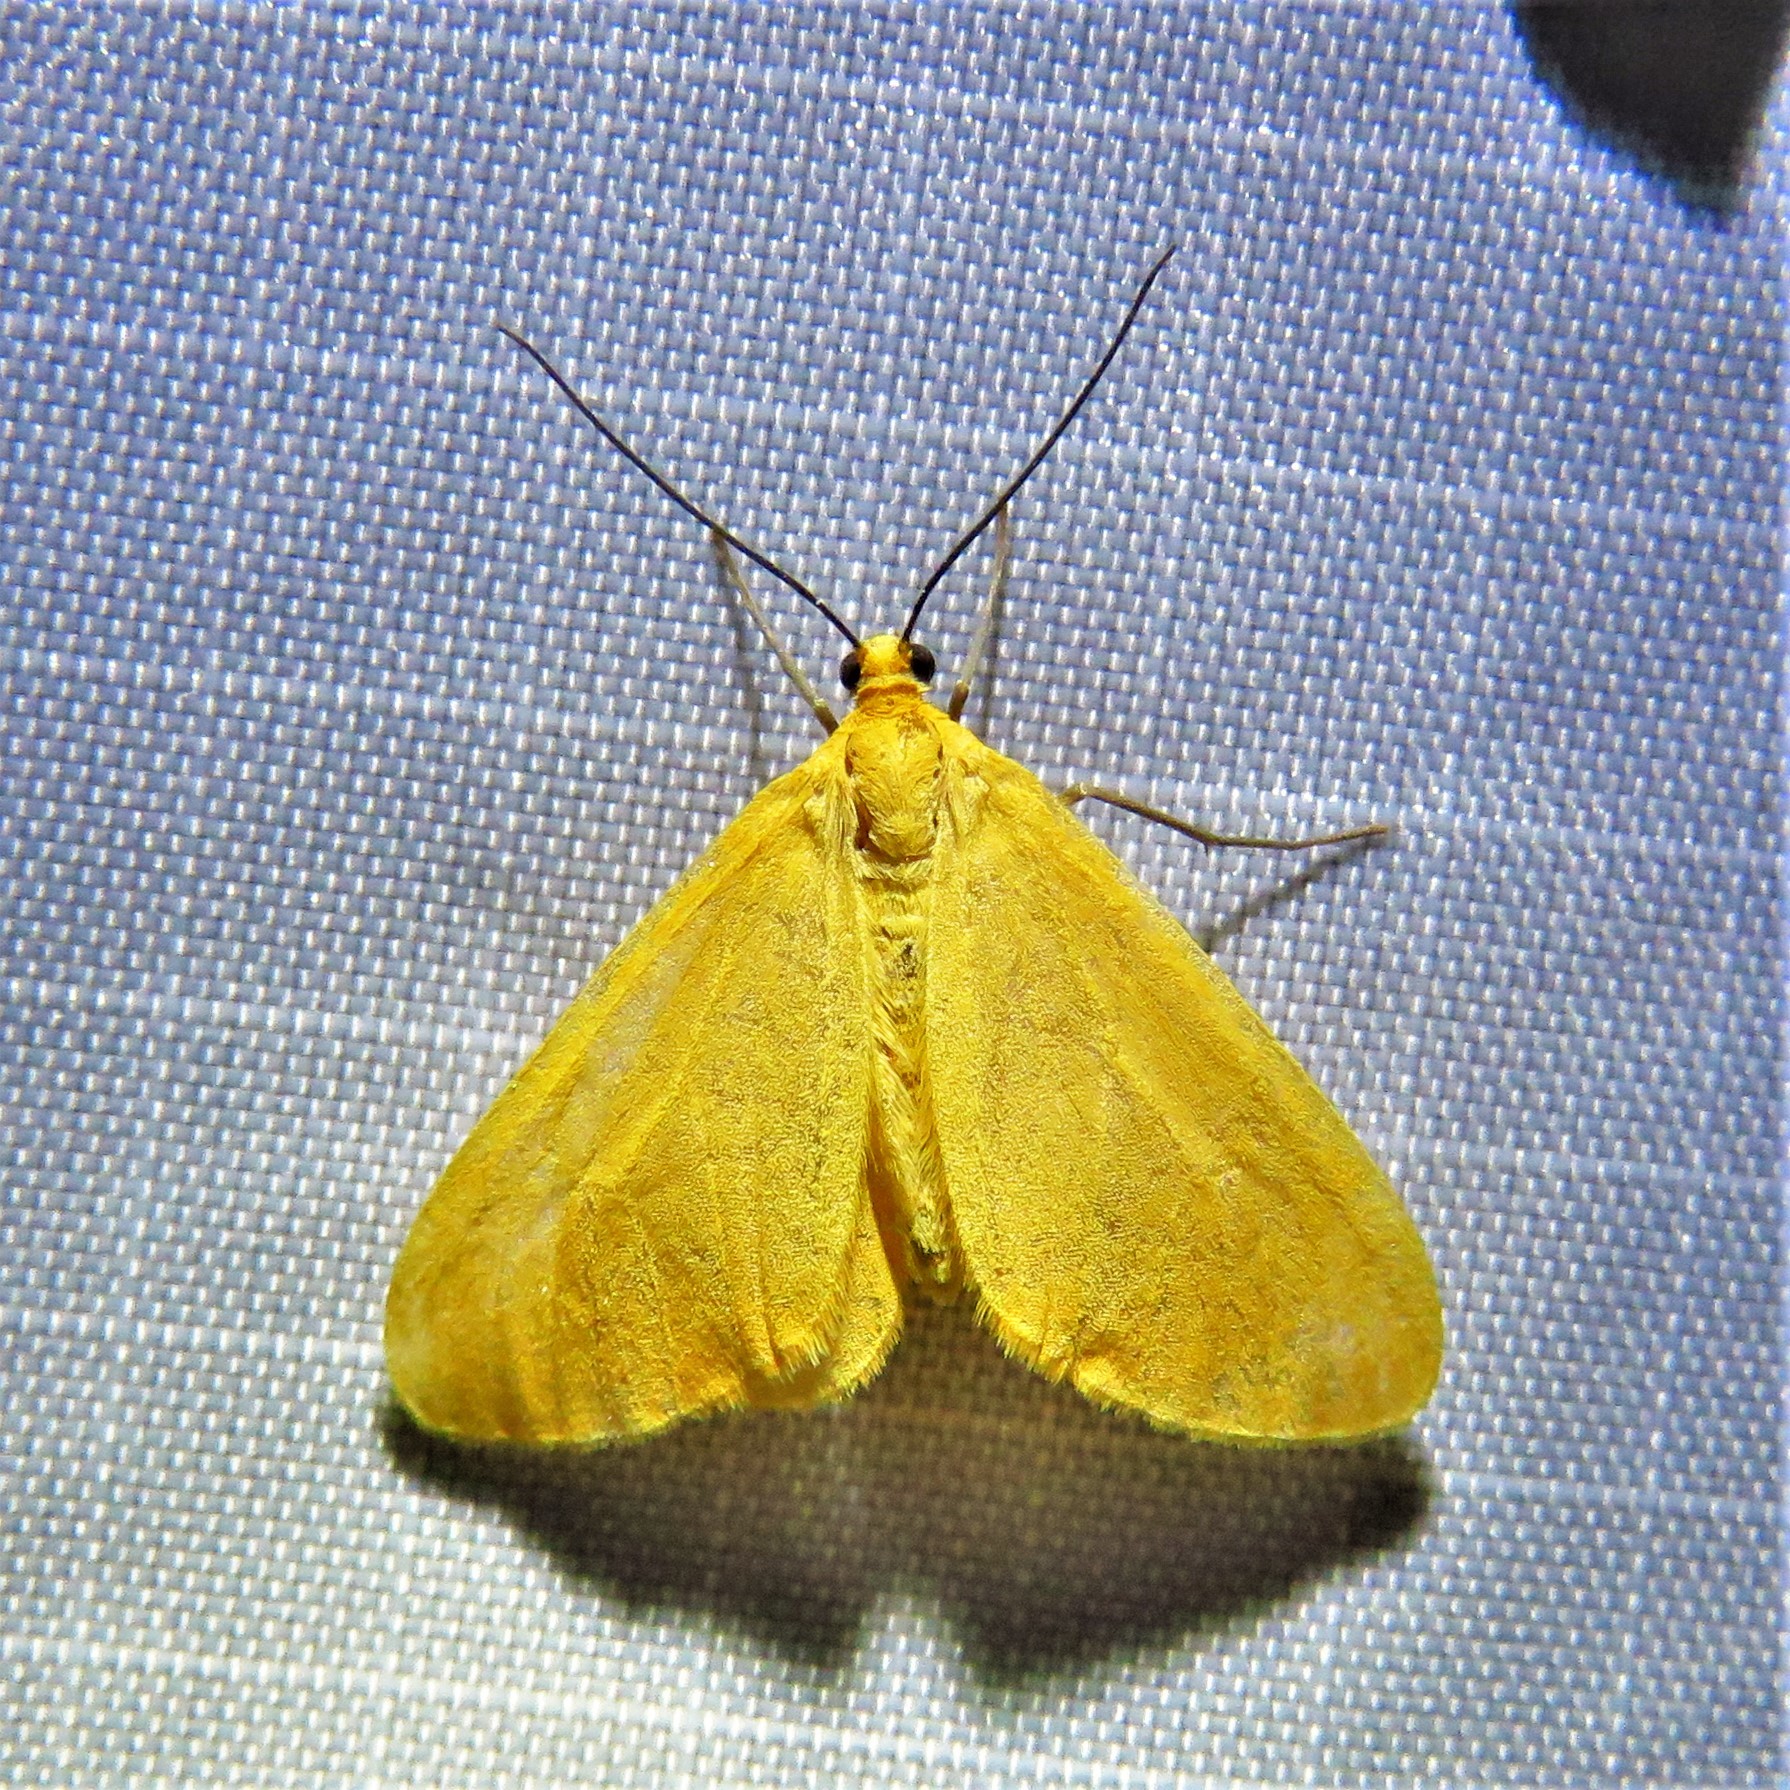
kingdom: Animalia
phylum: Arthropoda
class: Insecta
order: Lepidoptera
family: Geometridae
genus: Eubaphe
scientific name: Eubaphe unicolor
